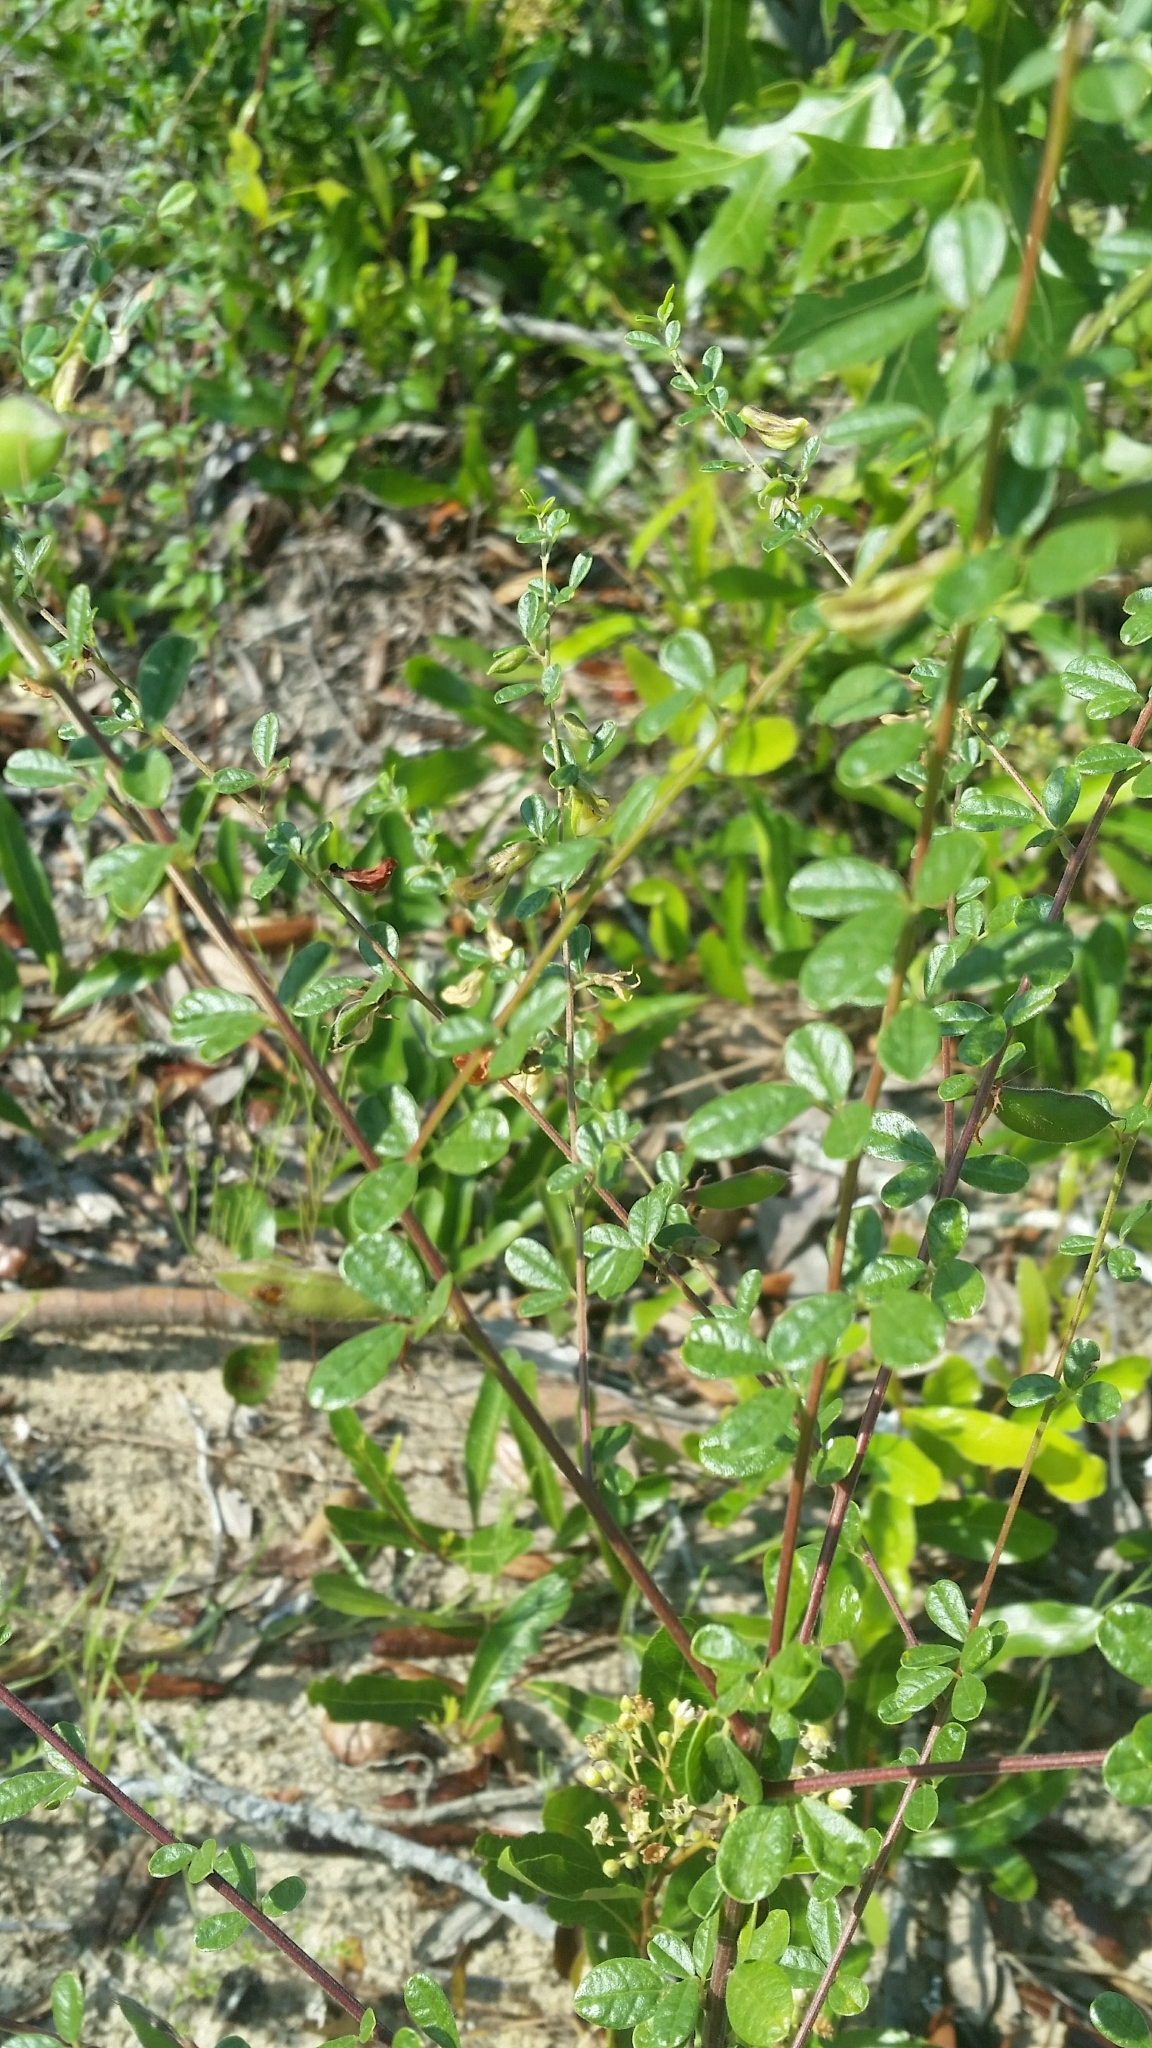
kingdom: Plantae
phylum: Tracheophyta
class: Magnoliopsida
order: Fabales
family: Fabaceae
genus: Rhynchosia
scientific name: Rhynchosia cytisoides
